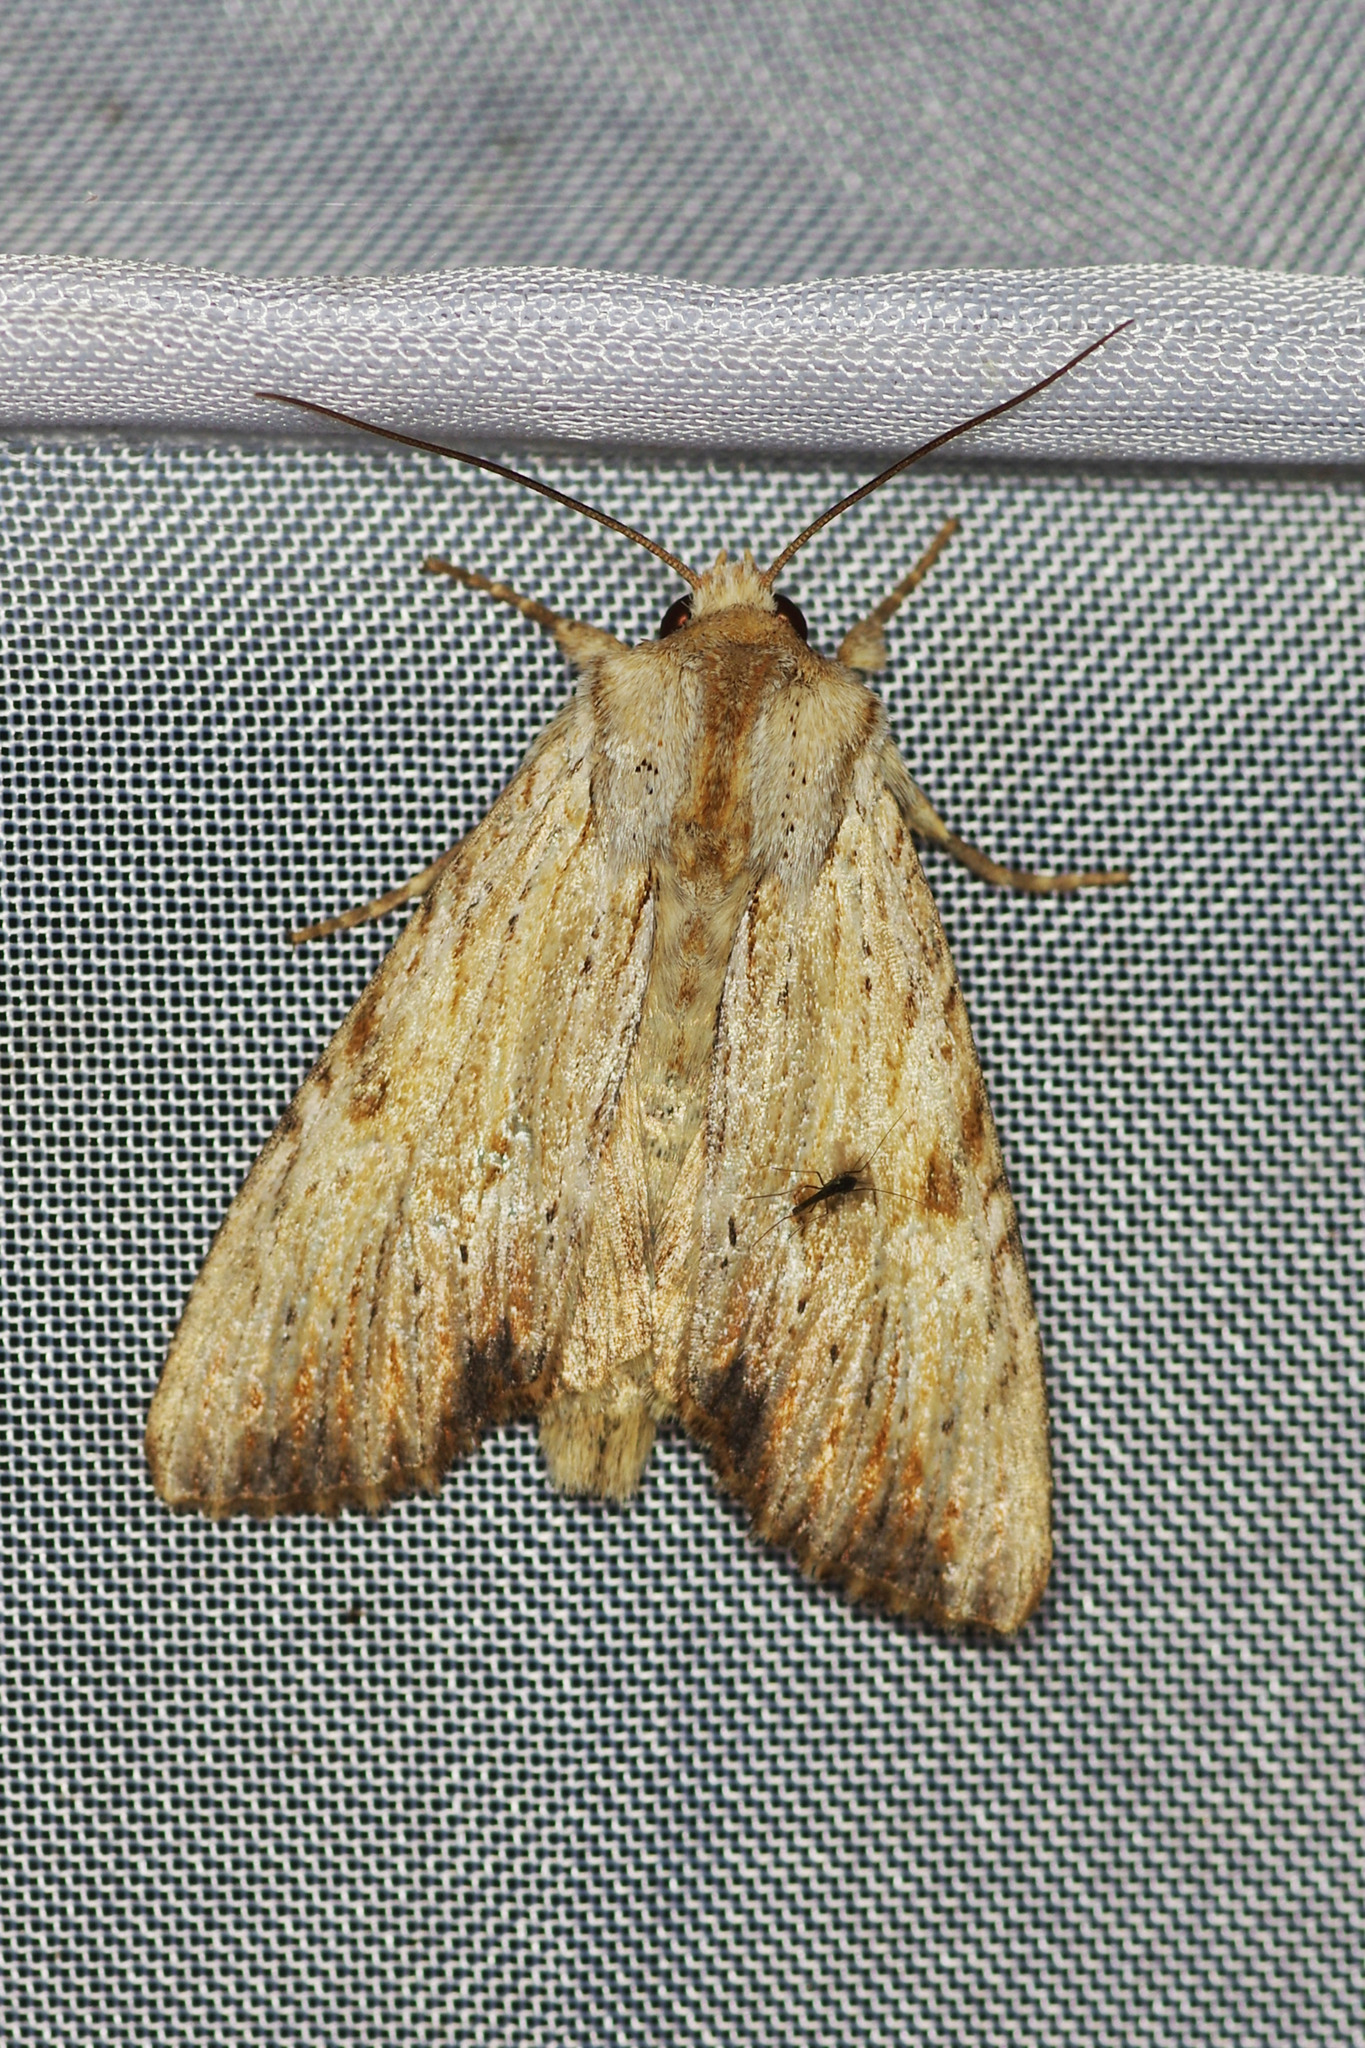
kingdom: Animalia
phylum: Arthropoda
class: Insecta
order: Lepidoptera
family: Noctuidae
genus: Apamea
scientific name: Apamea lithoxylaea
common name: Light arches
